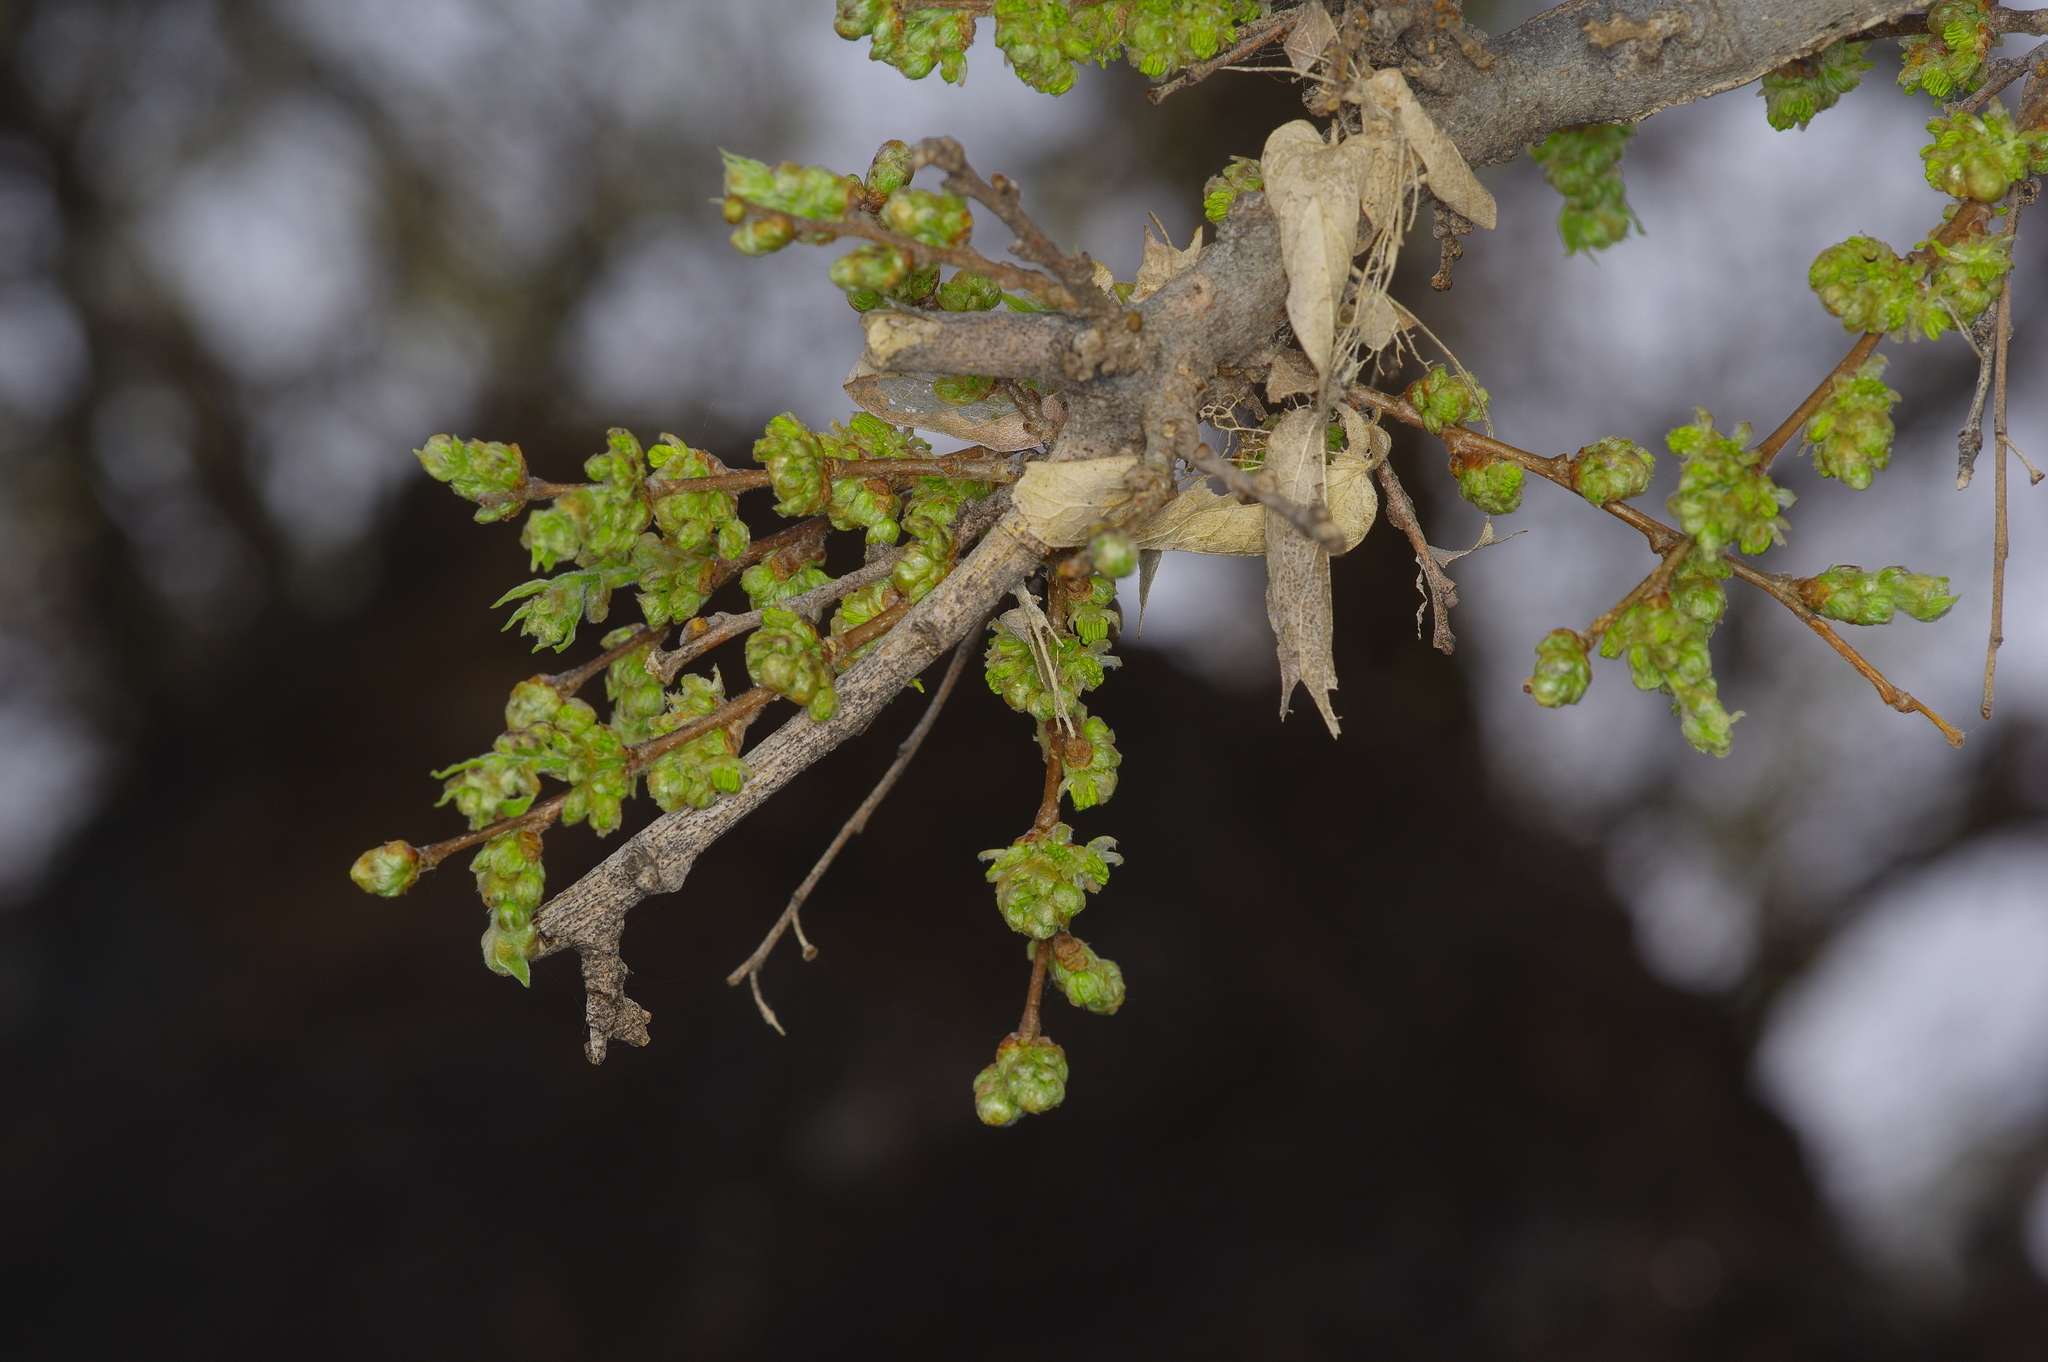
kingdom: Plantae
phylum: Tracheophyta
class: Magnoliopsida
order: Rosales
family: Cannabaceae
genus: Celtis
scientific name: Celtis reticulata
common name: Netleaf hackberry
